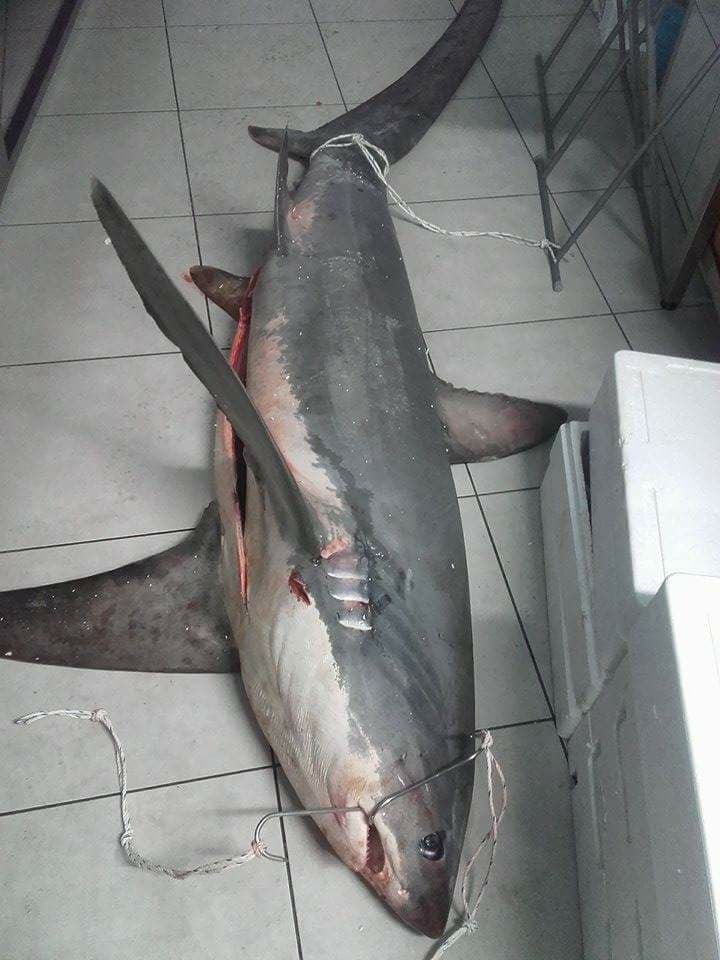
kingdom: Animalia
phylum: Chordata
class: Elasmobranchii
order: Lamniformes
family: Alopiidae
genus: Alopias
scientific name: Alopias vulpinus
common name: Thresher shark
